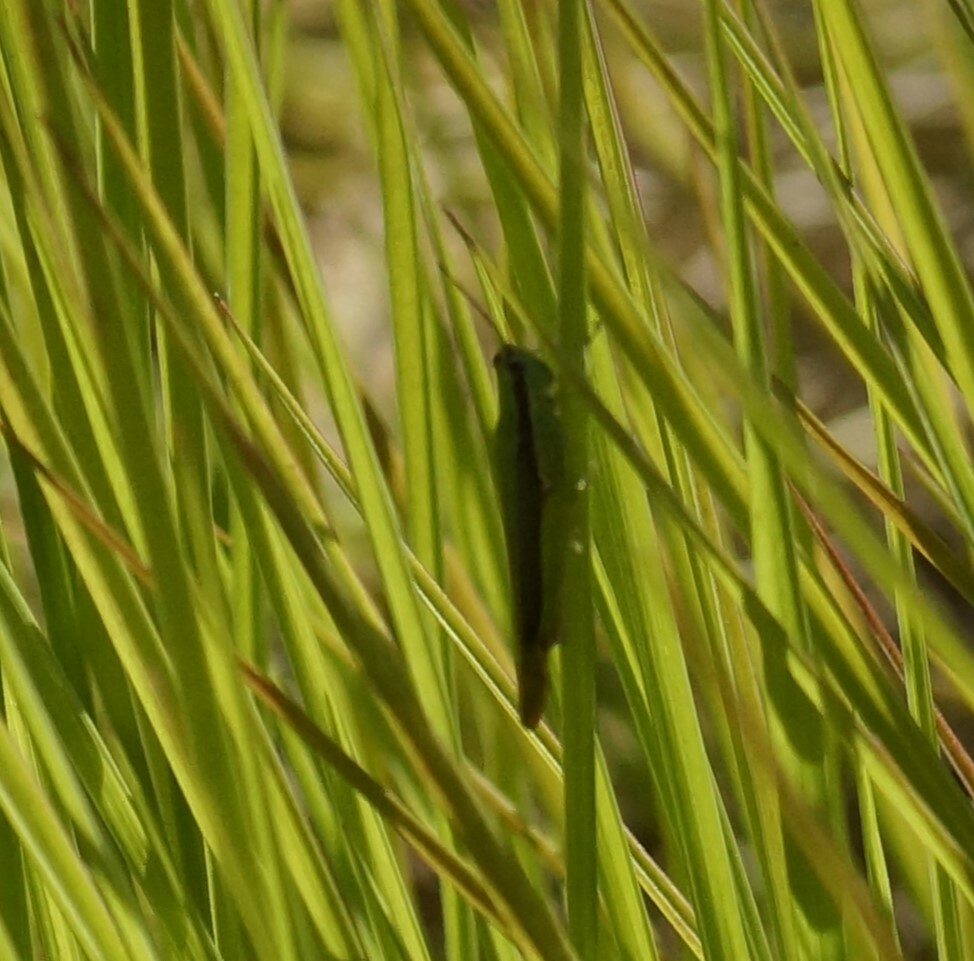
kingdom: Animalia
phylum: Arthropoda
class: Insecta
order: Orthoptera
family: Acrididae
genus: Gesonula
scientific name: Gesonula mundata
